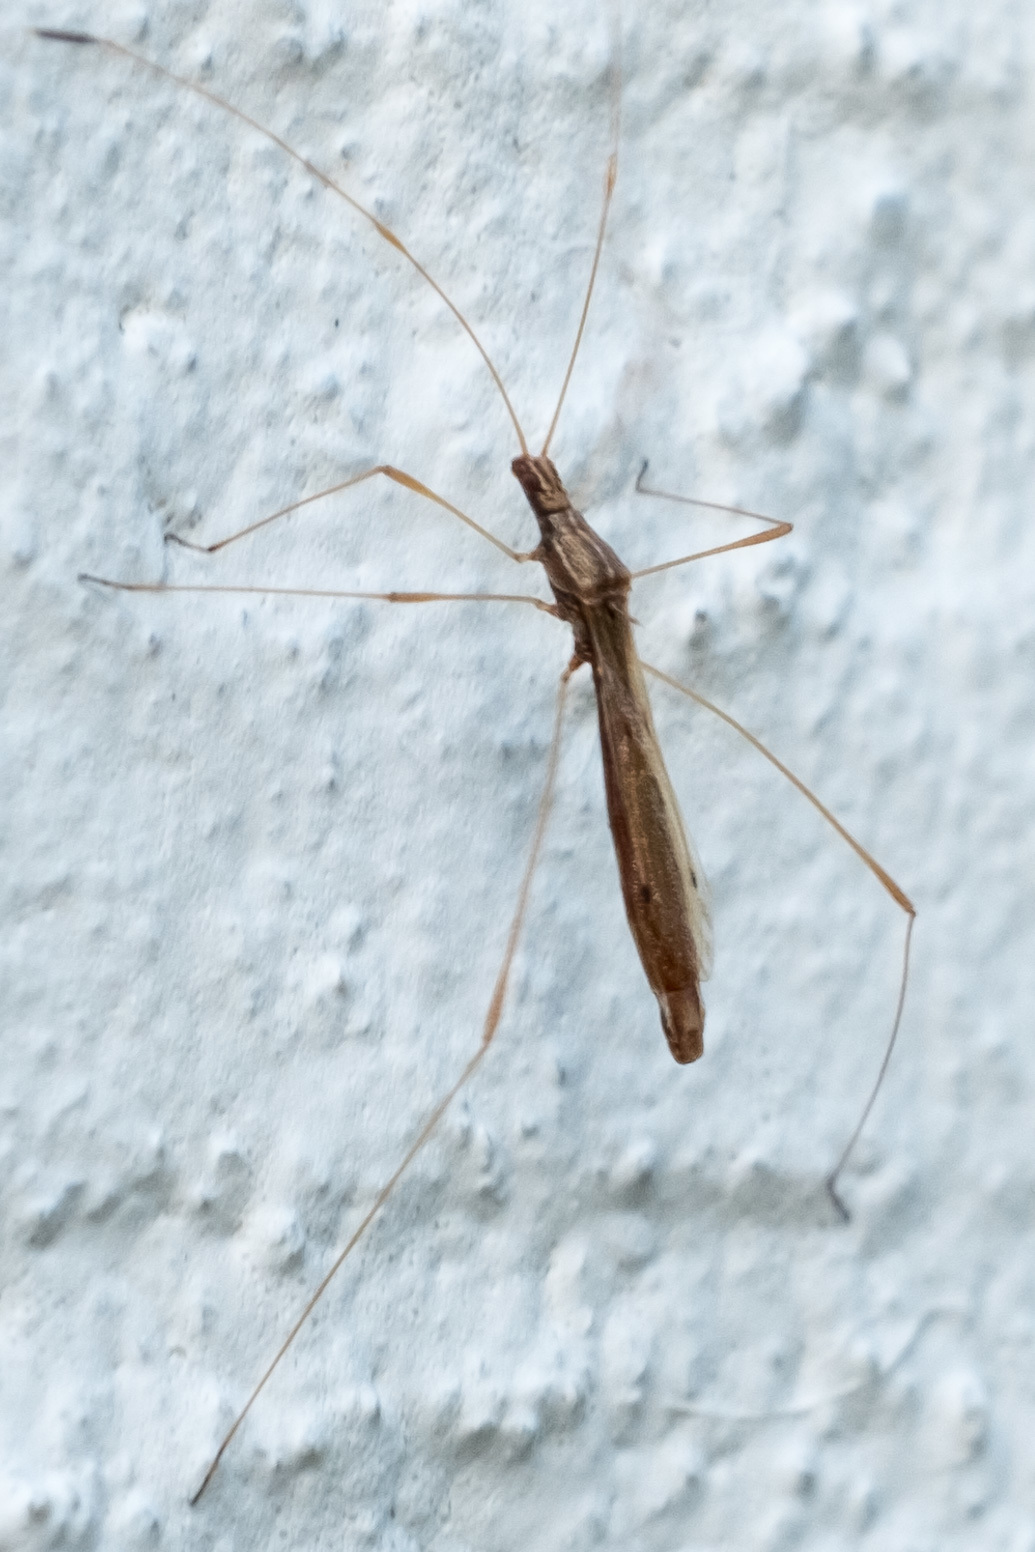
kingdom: Animalia
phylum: Arthropoda
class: Insecta
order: Hemiptera
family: Berytidae
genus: Jalysus
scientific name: Jalysus
